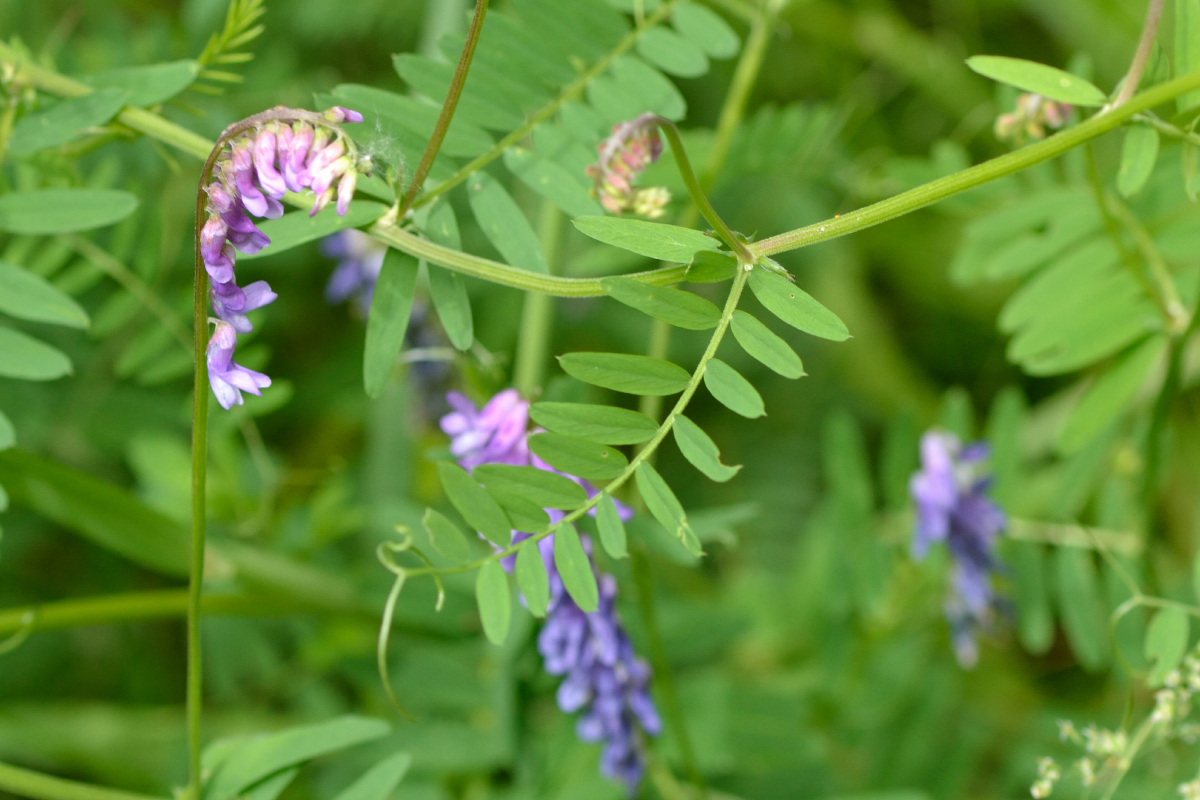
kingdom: Plantae
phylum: Tracheophyta
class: Magnoliopsida
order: Fabales
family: Fabaceae
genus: Vicia
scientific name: Vicia cracca
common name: Bird vetch
